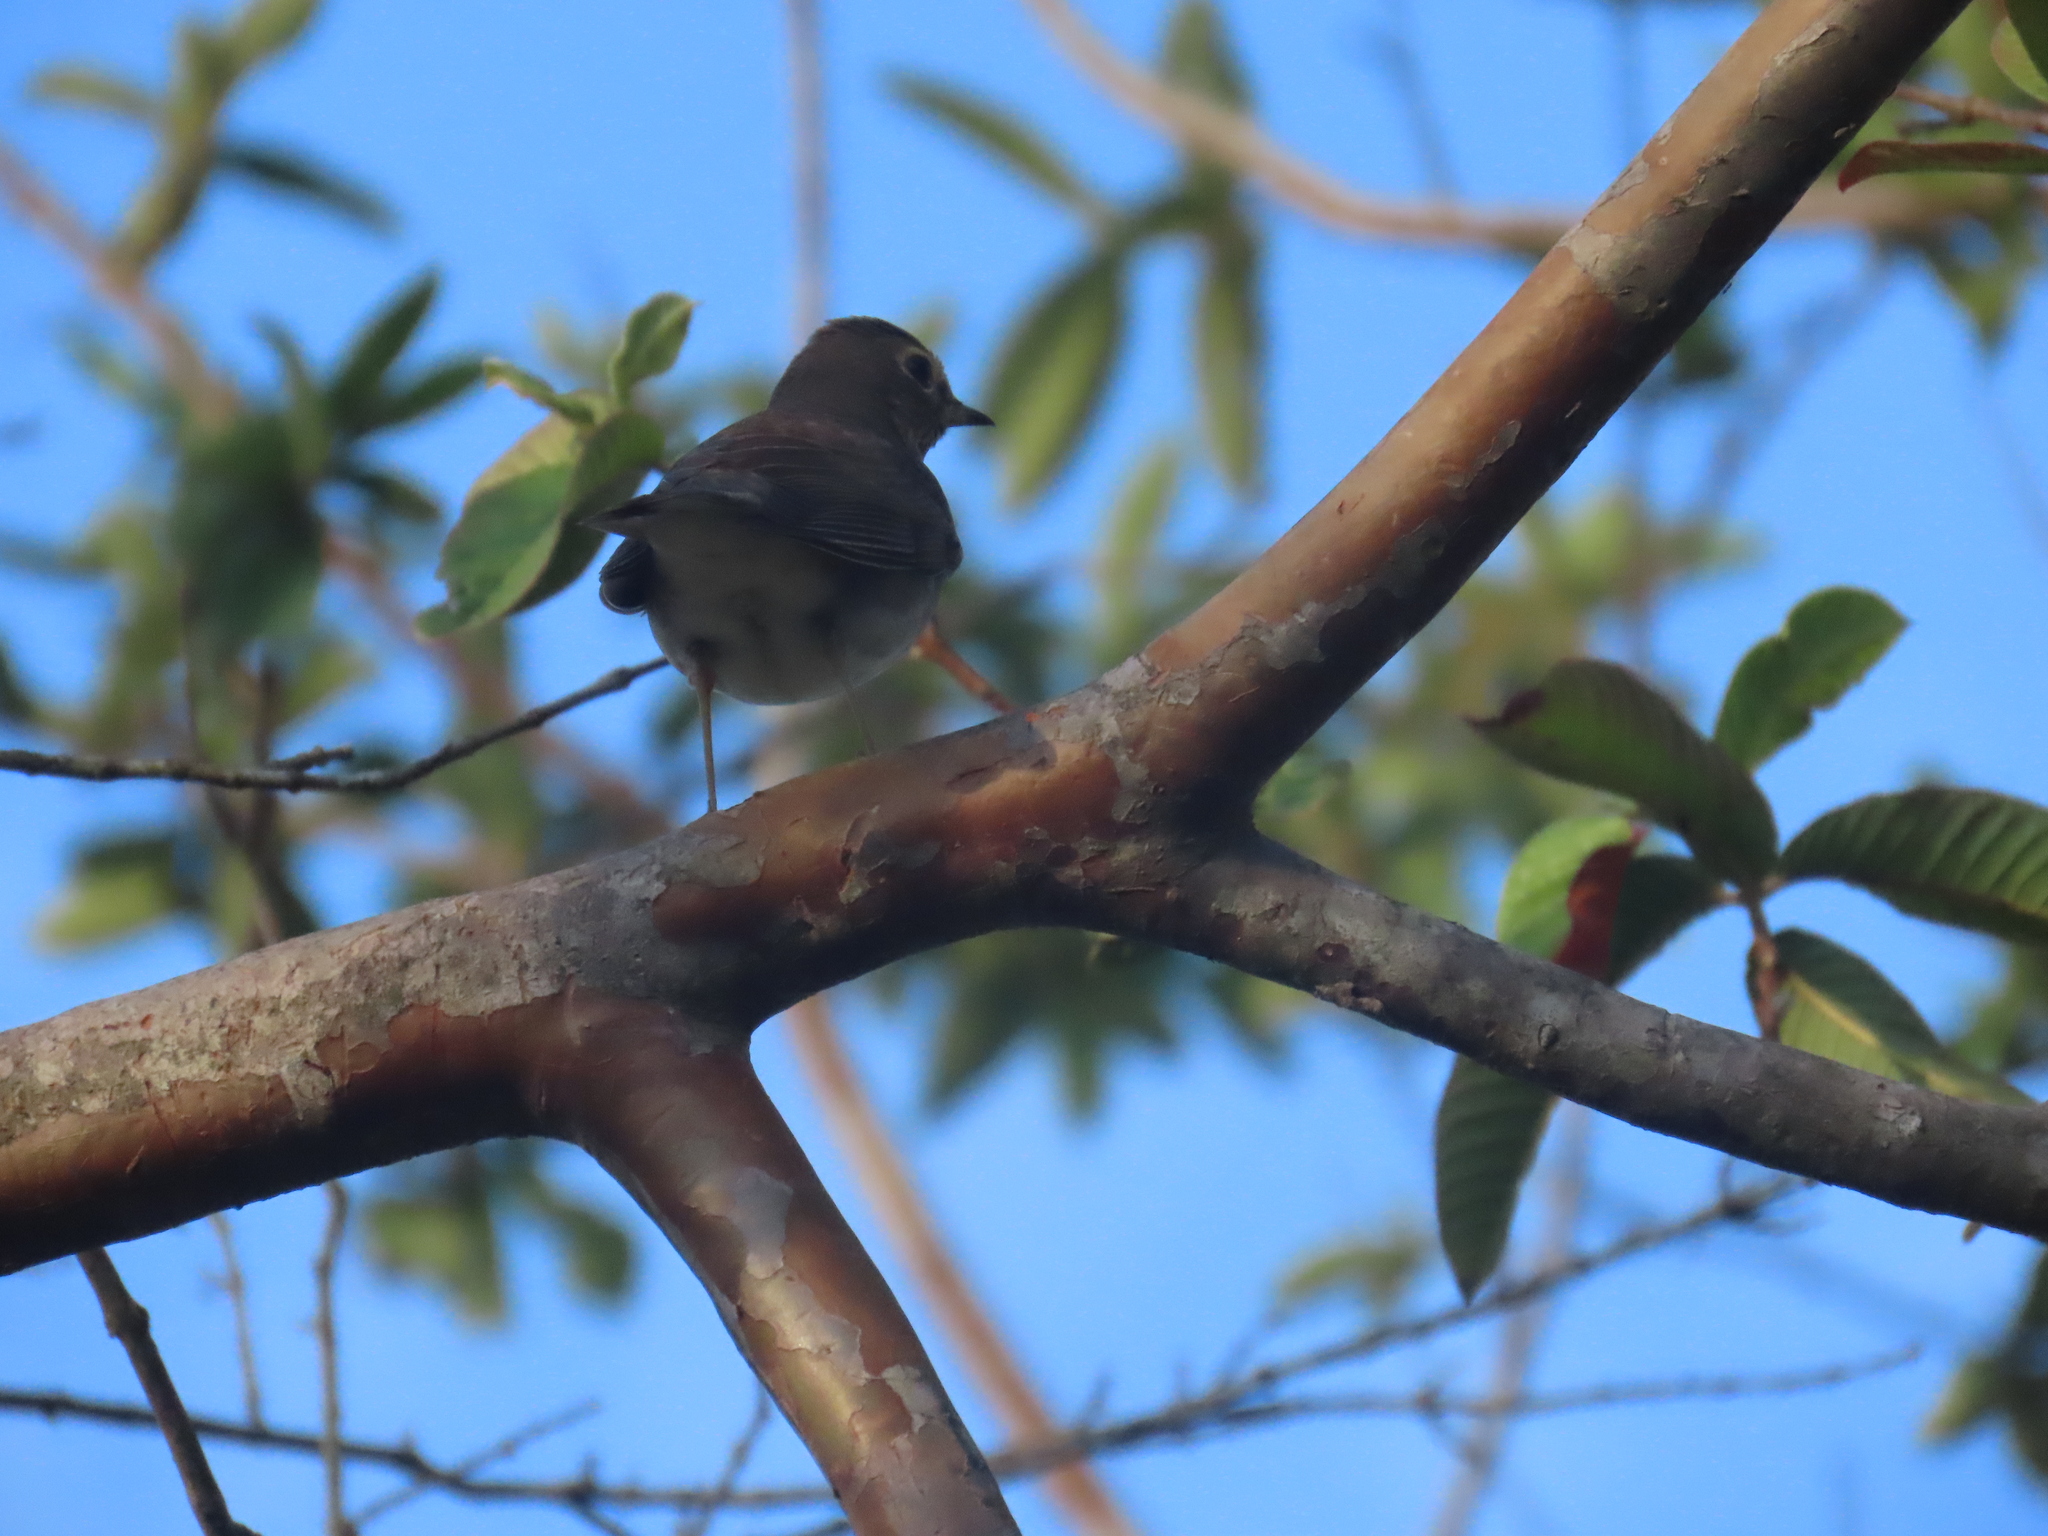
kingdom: Animalia
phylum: Chordata
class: Aves
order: Passeriformes
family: Turdidae
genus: Catharus
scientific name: Catharus ustulatus
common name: Swainson's thrush
